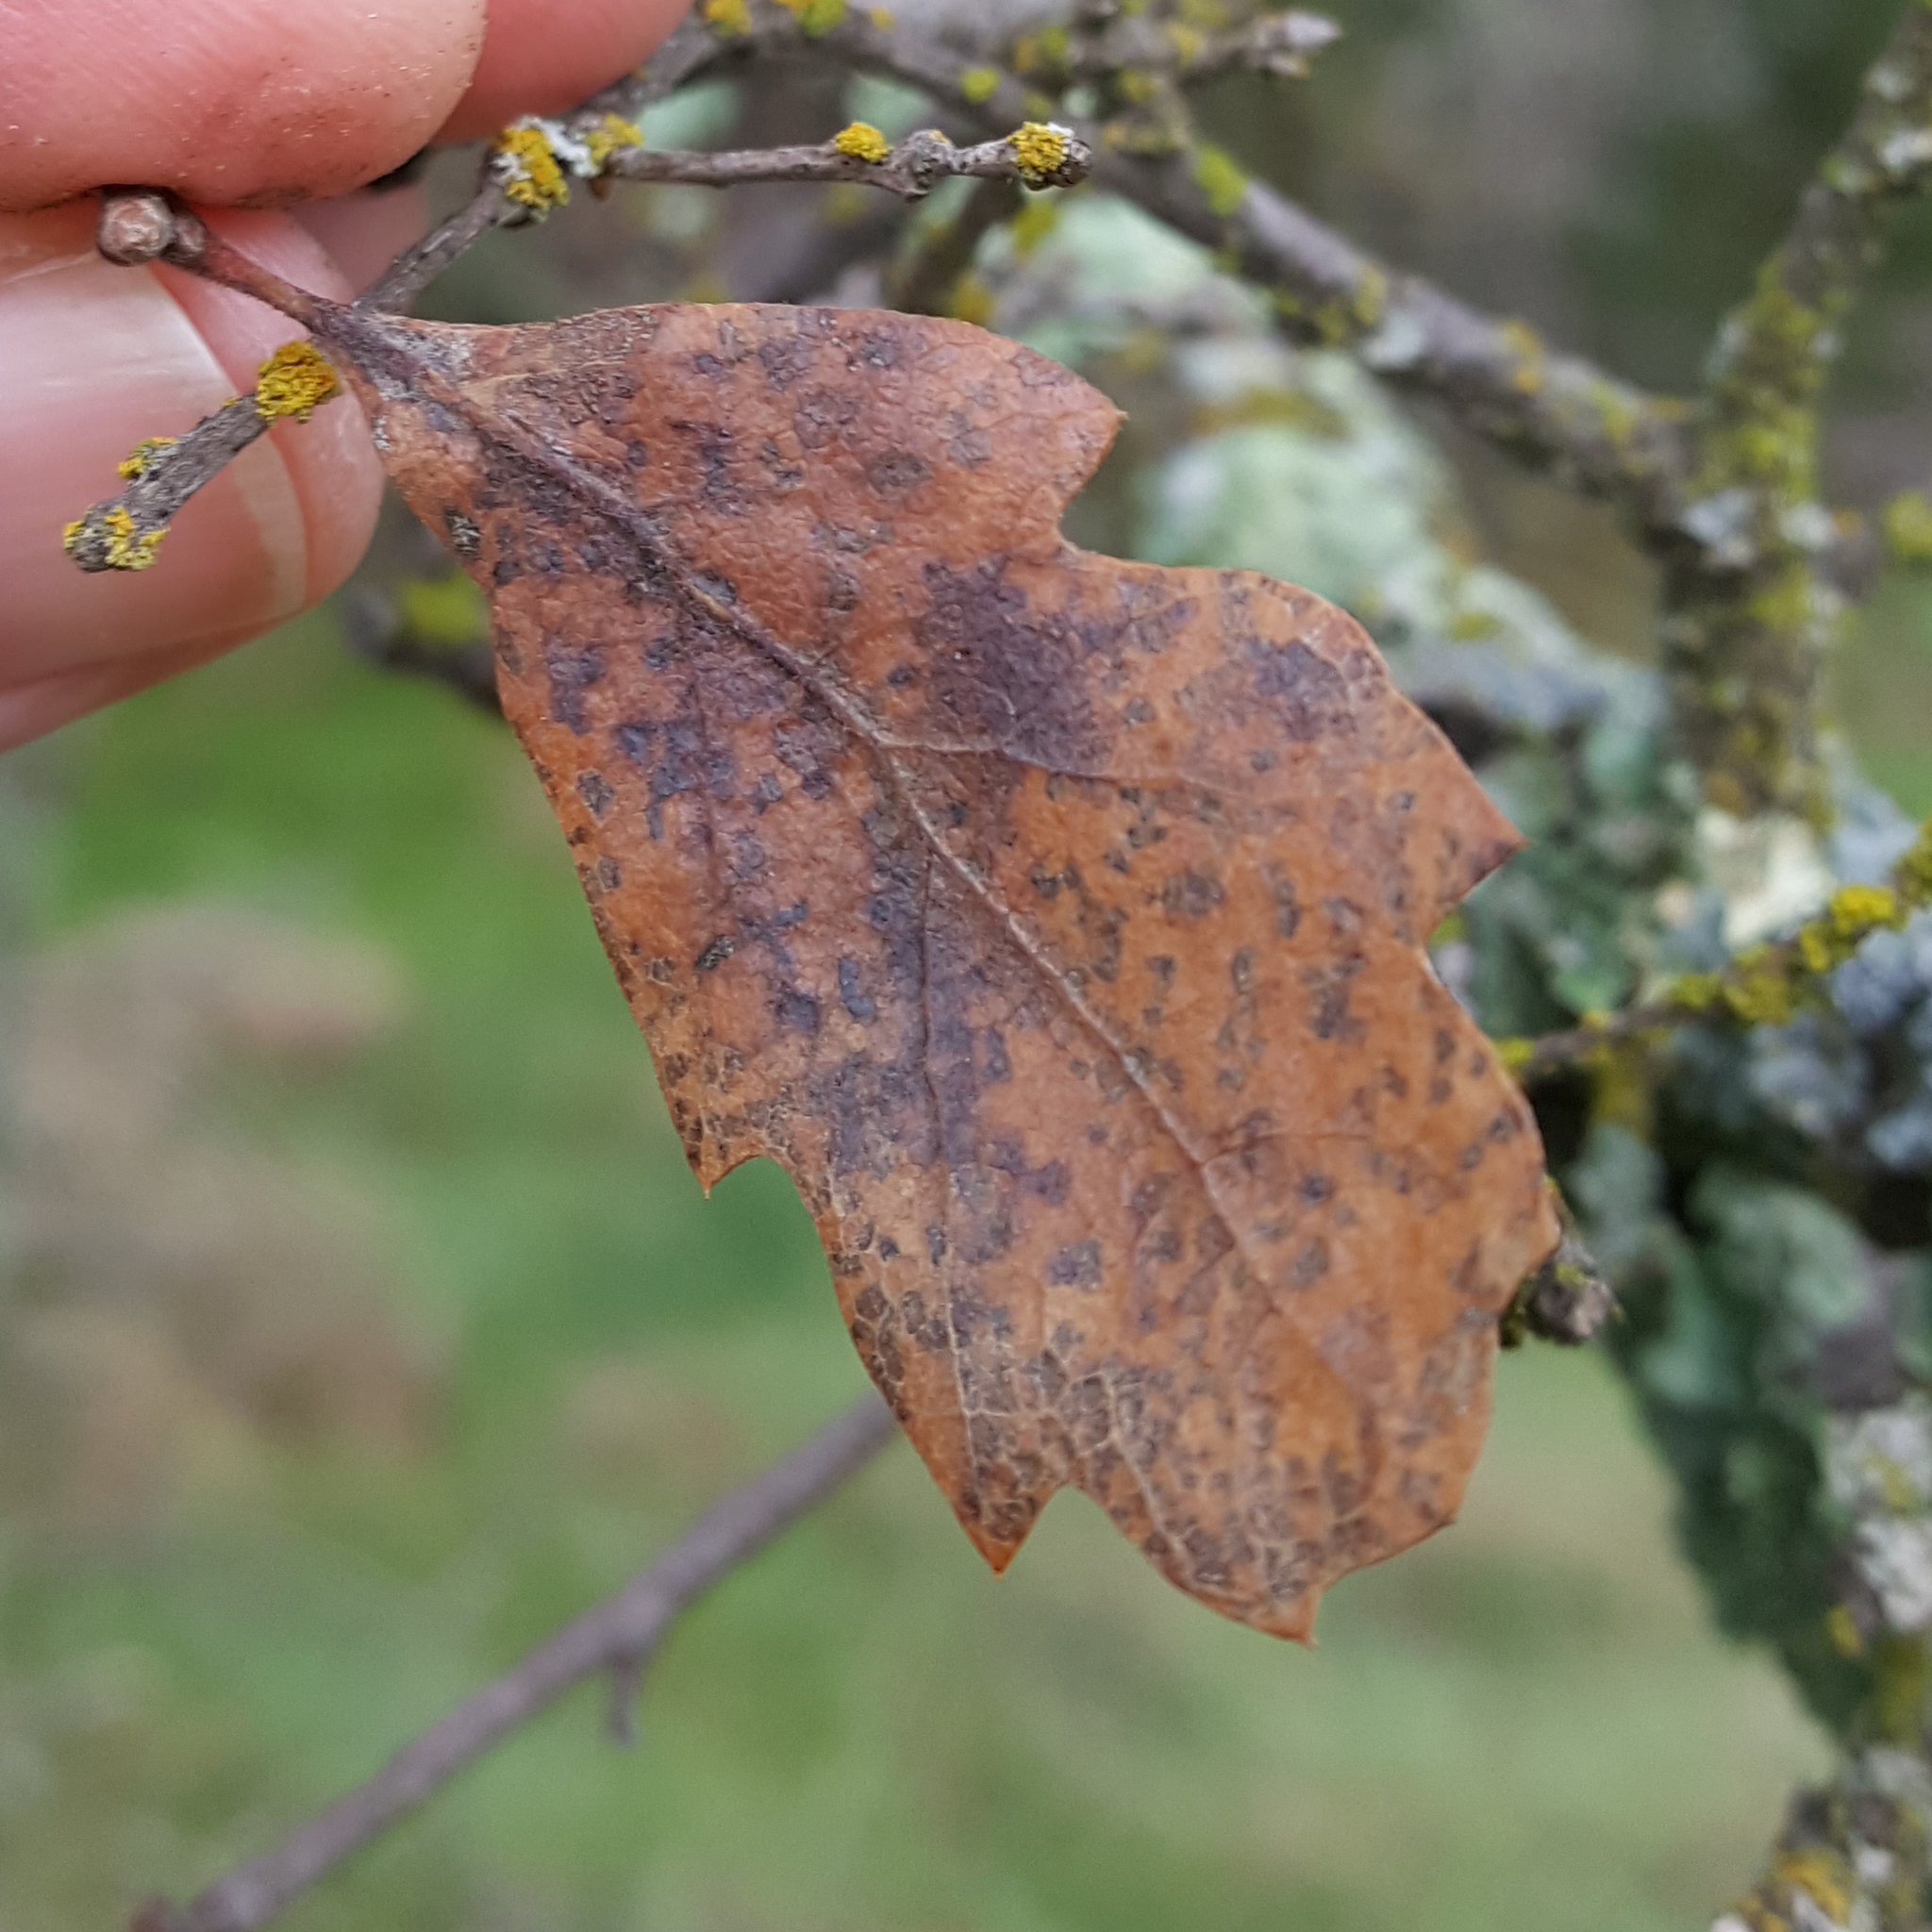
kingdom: Plantae
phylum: Tracheophyta
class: Magnoliopsida
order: Fagales
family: Fagaceae
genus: Quercus
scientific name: Quercus douglasii
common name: Blue oak
